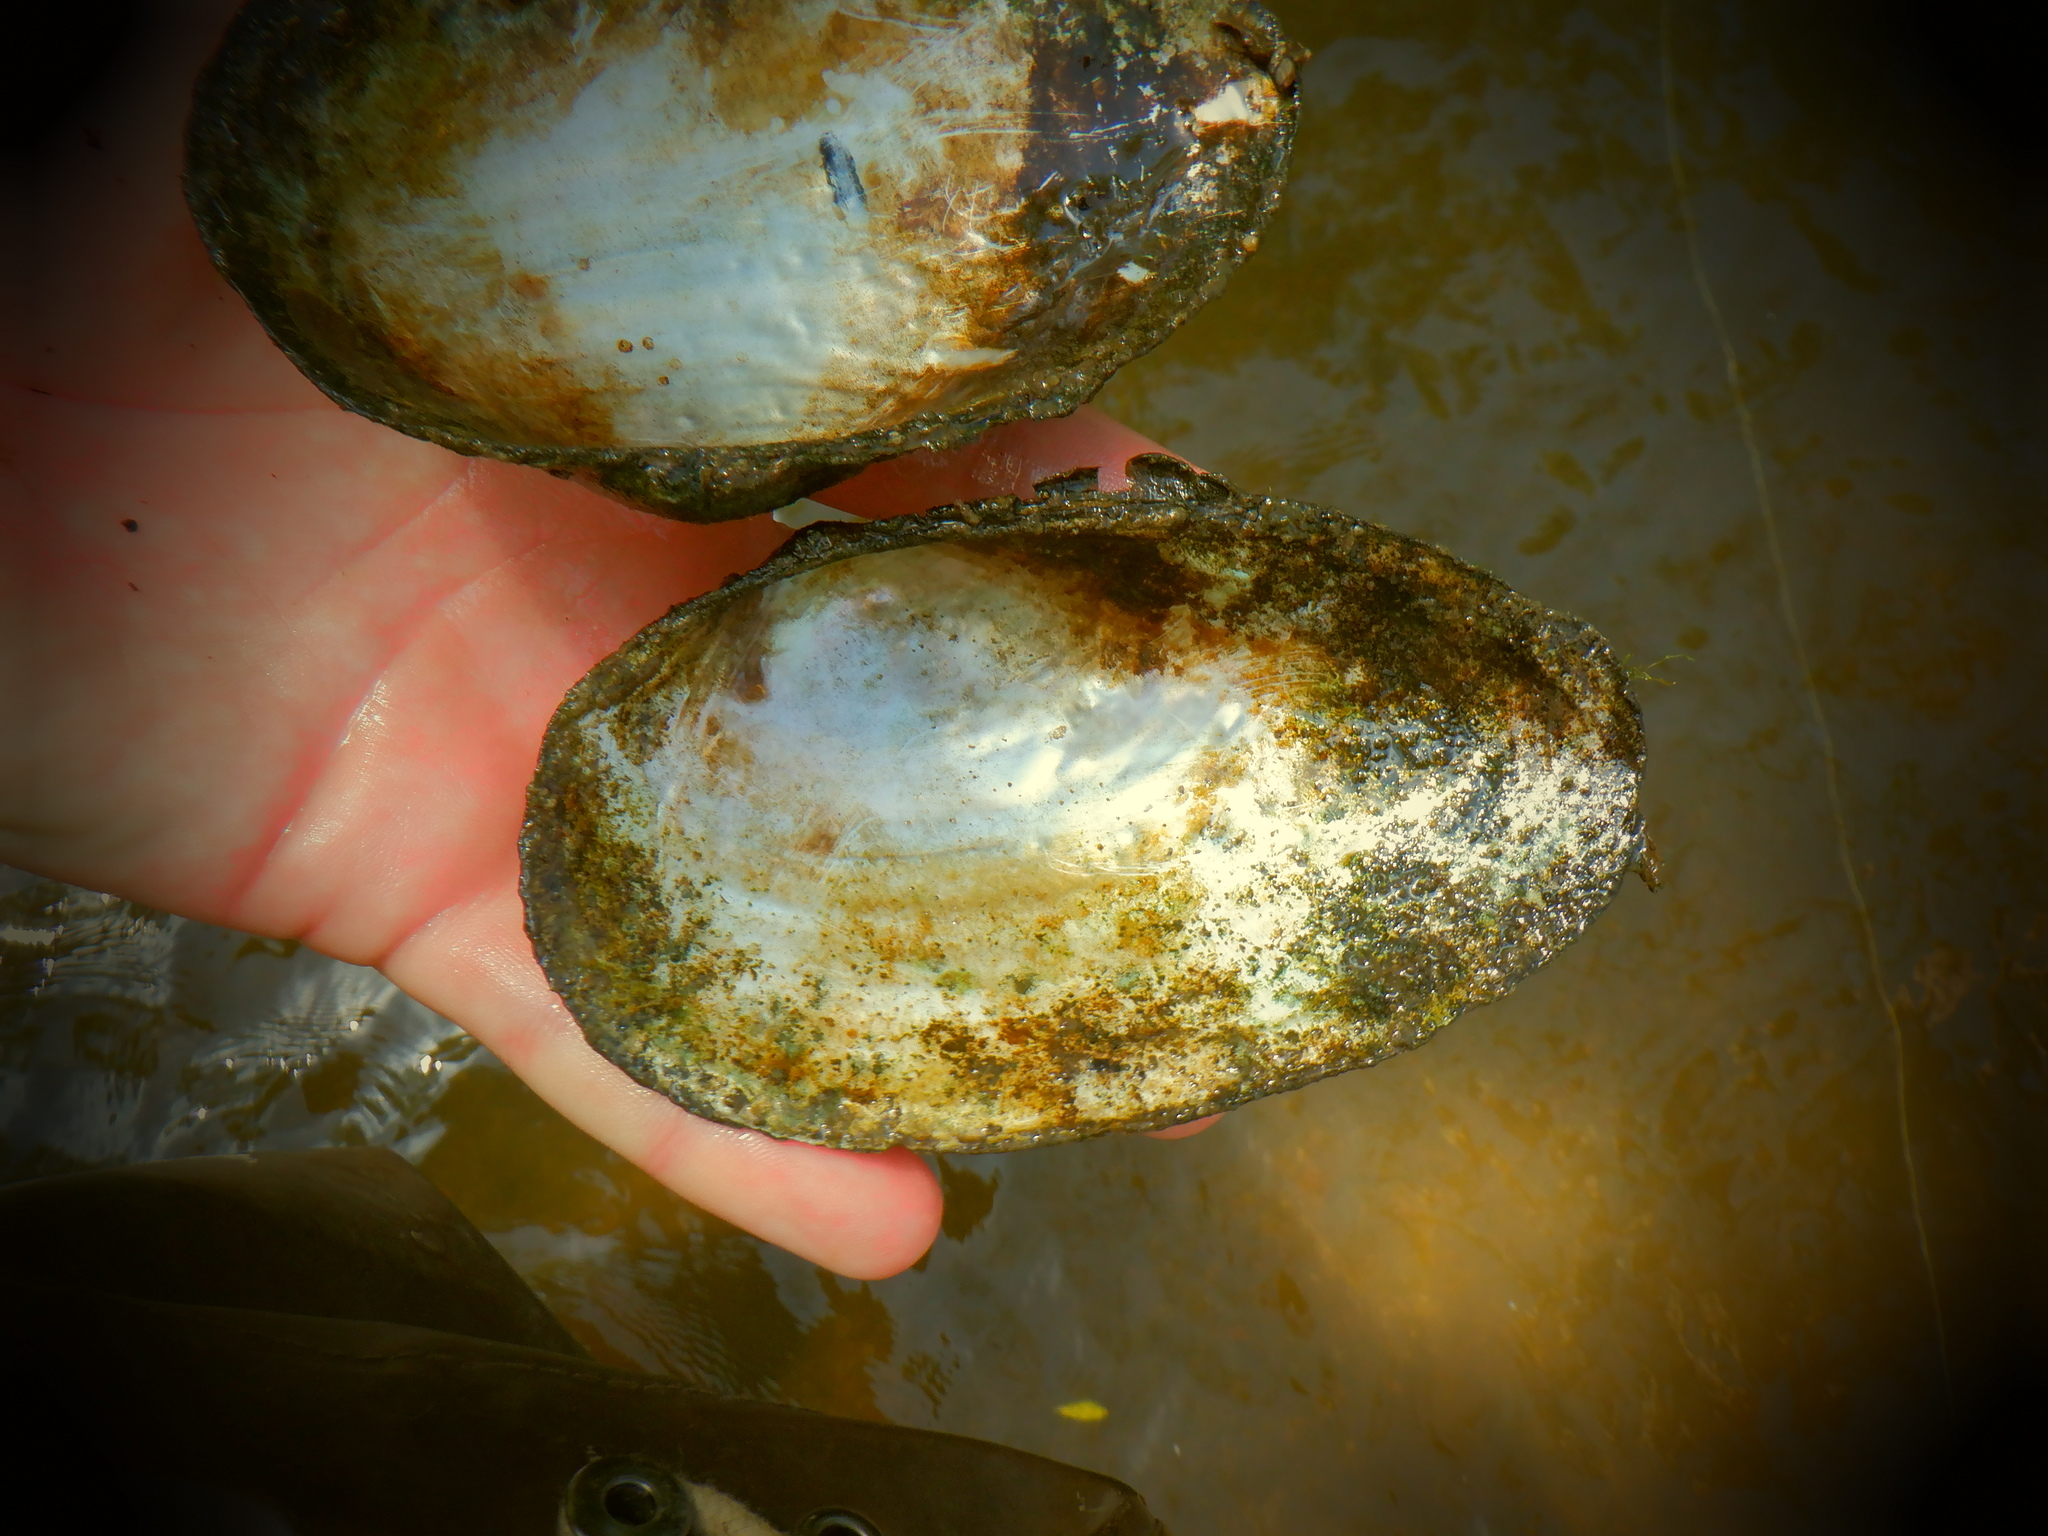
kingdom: Animalia
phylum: Mollusca
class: Bivalvia
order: Unionida
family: Unionidae
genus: Pyganodon
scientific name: Pyganodon grandis
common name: Giant floater
